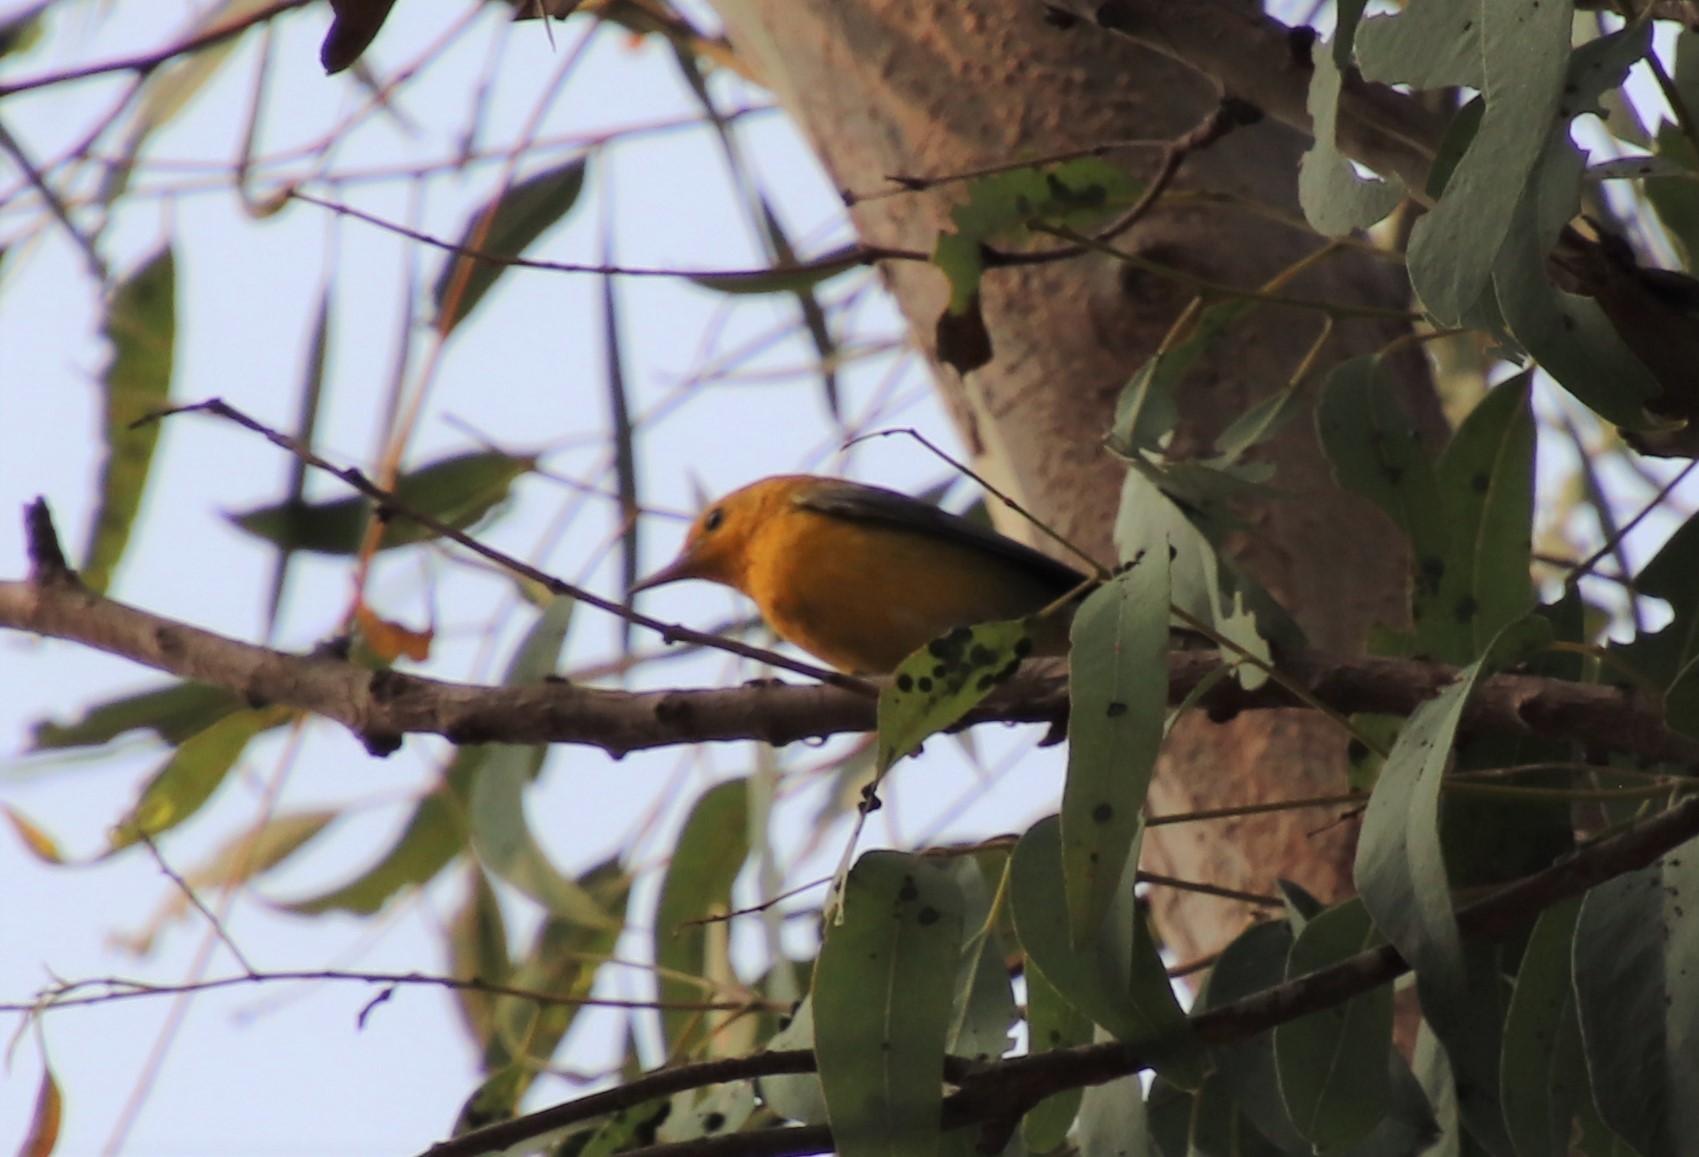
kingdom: Animalia
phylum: Chordata
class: Aves
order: Passeriformes
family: Parulidae
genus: Protonotaria
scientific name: Protonotaria citrea
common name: Prothonotary warbler
